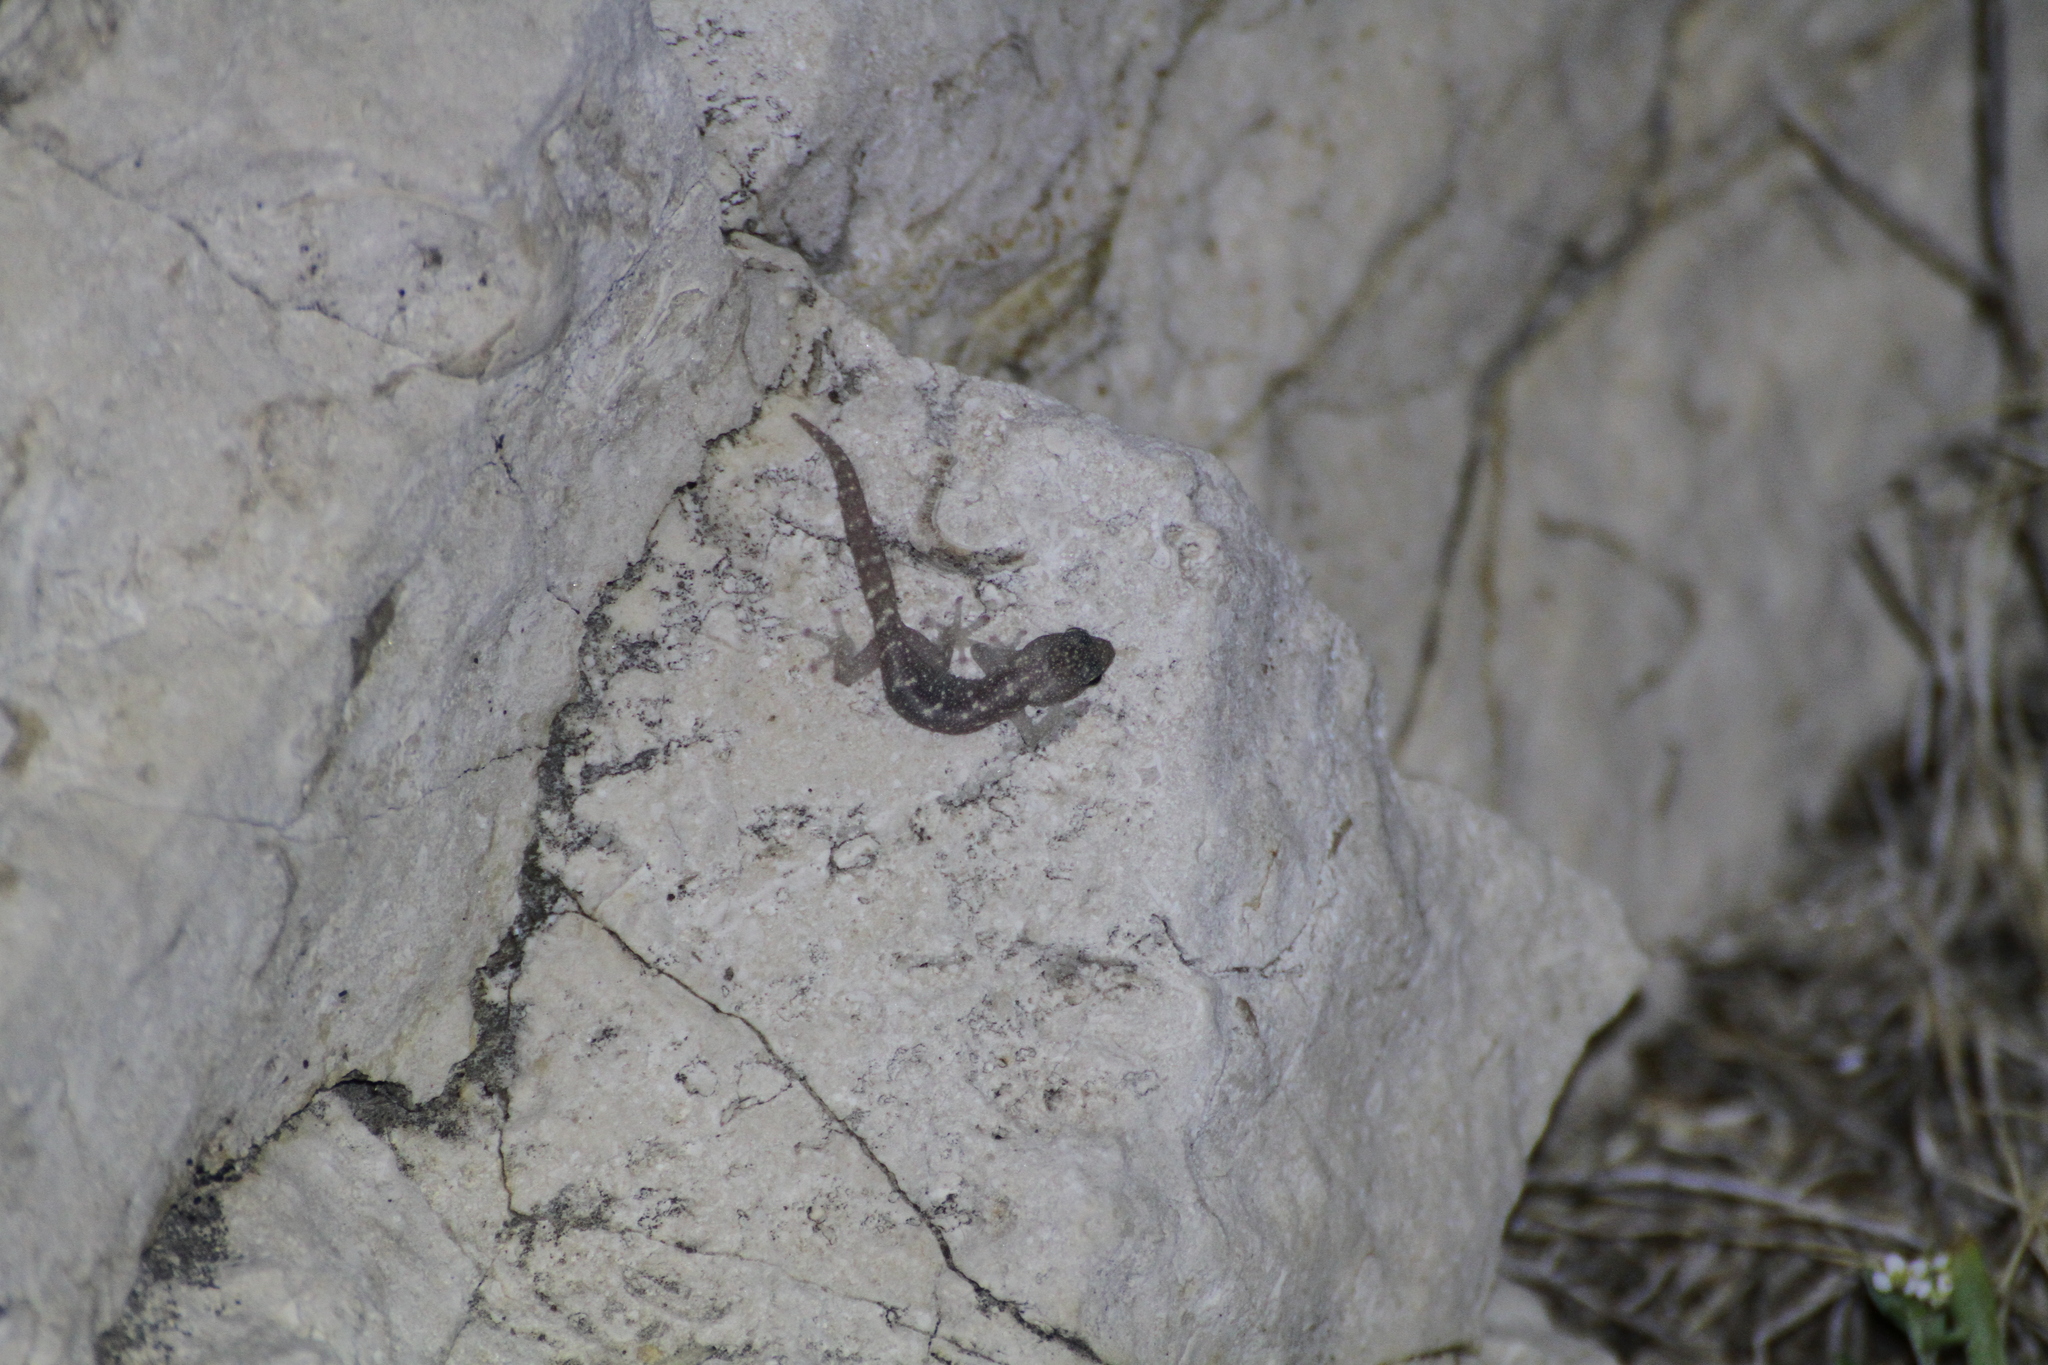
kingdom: Animalia
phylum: Chordata
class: Squamata
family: Sphaerodactylidae
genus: Euleptes
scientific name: Euleptes europaea
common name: English common name not available
